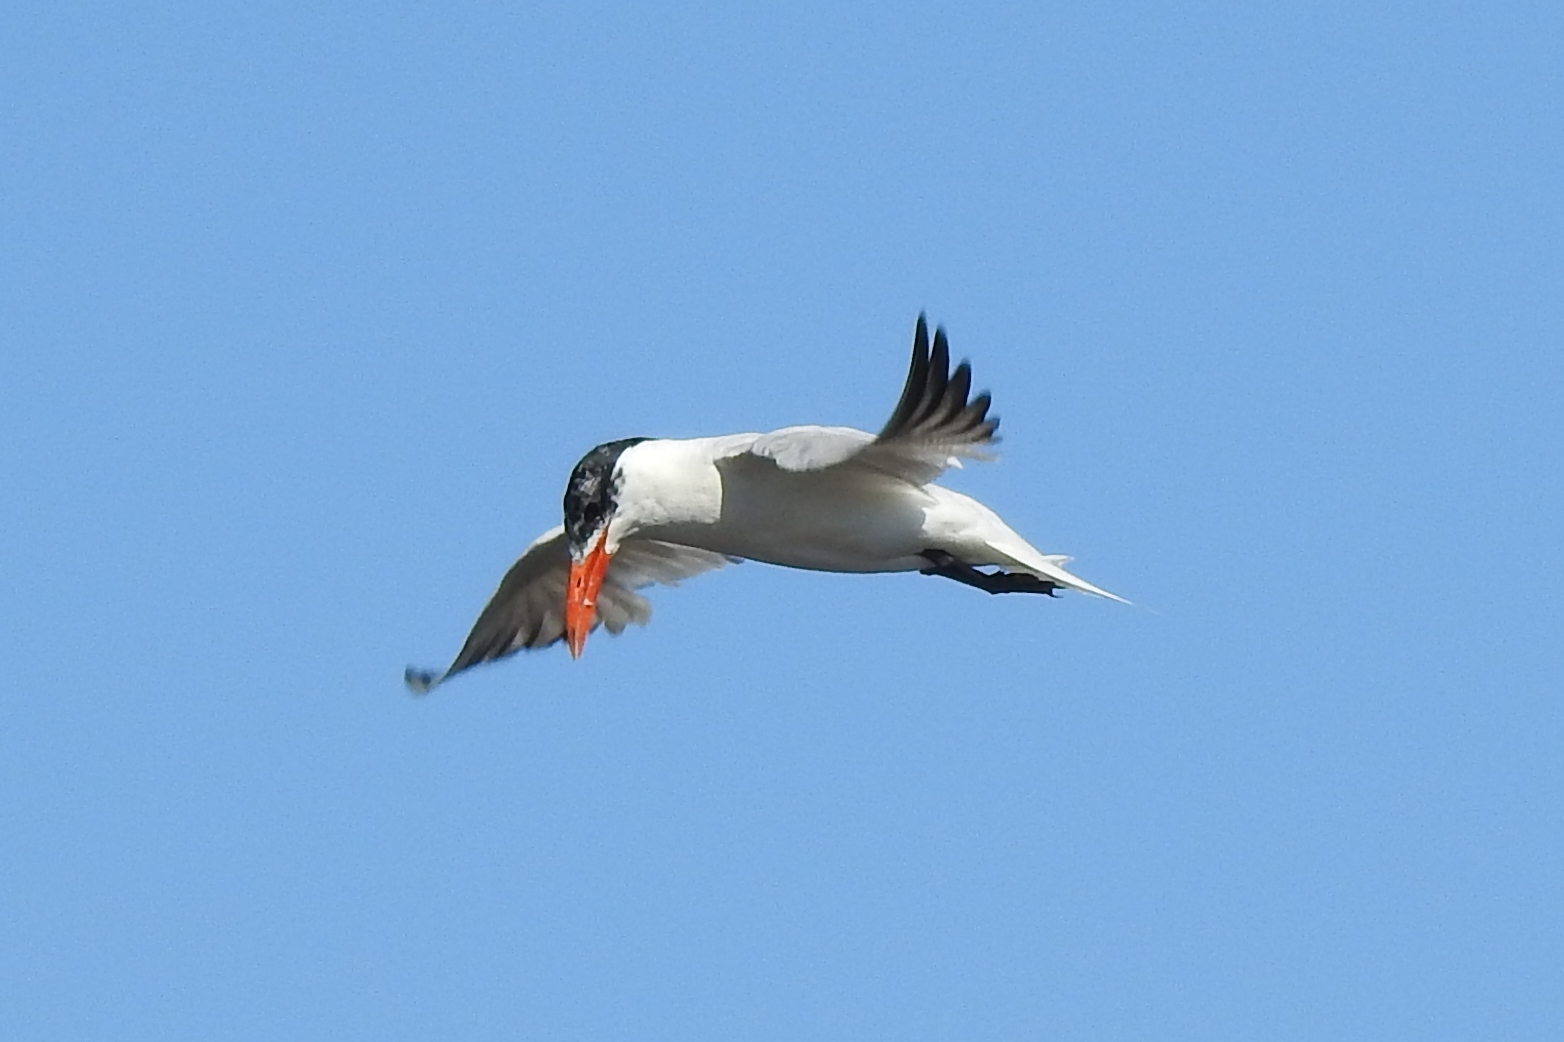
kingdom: Animalia
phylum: Chordata
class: Aves
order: Charadriiformes
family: Laridae
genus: Hydroprogne
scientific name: Hydroprogne caspia
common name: Caspian tern
